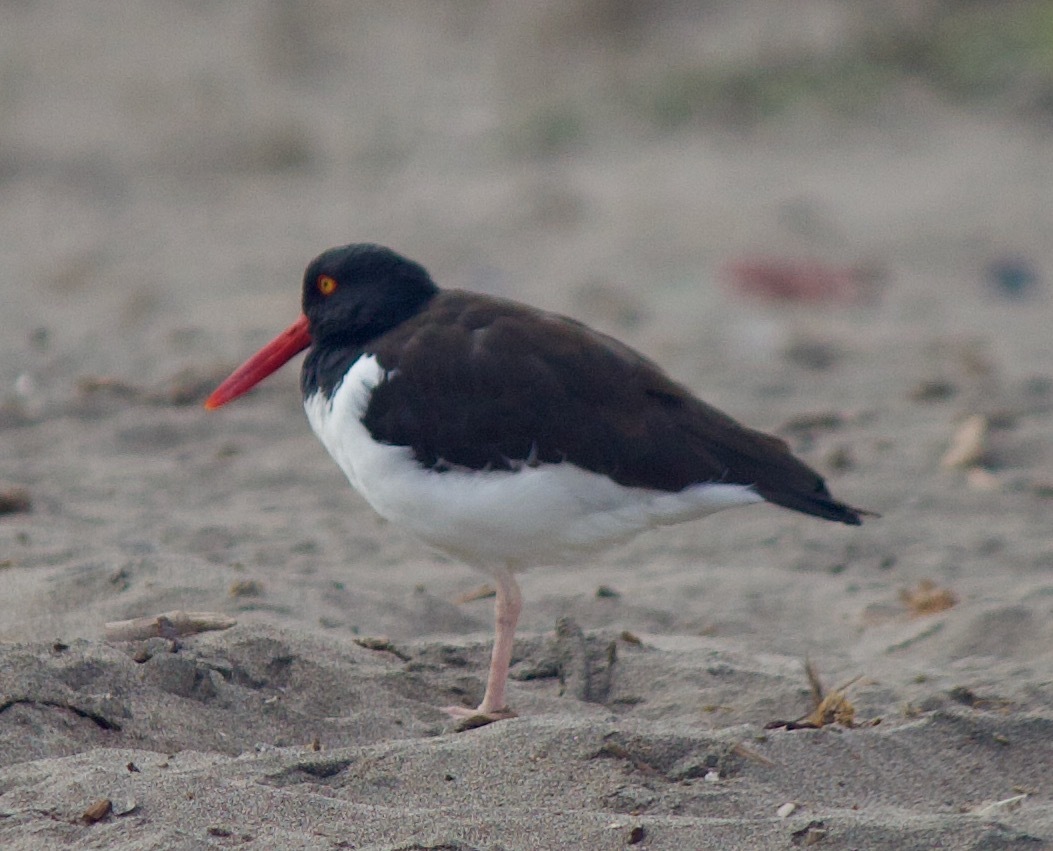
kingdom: Animalia
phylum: Chordata
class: Aves
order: Charadriiformes
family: Haematopodidae
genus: Haematopus
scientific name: Haematopus palliatus
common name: American oystercatcher
